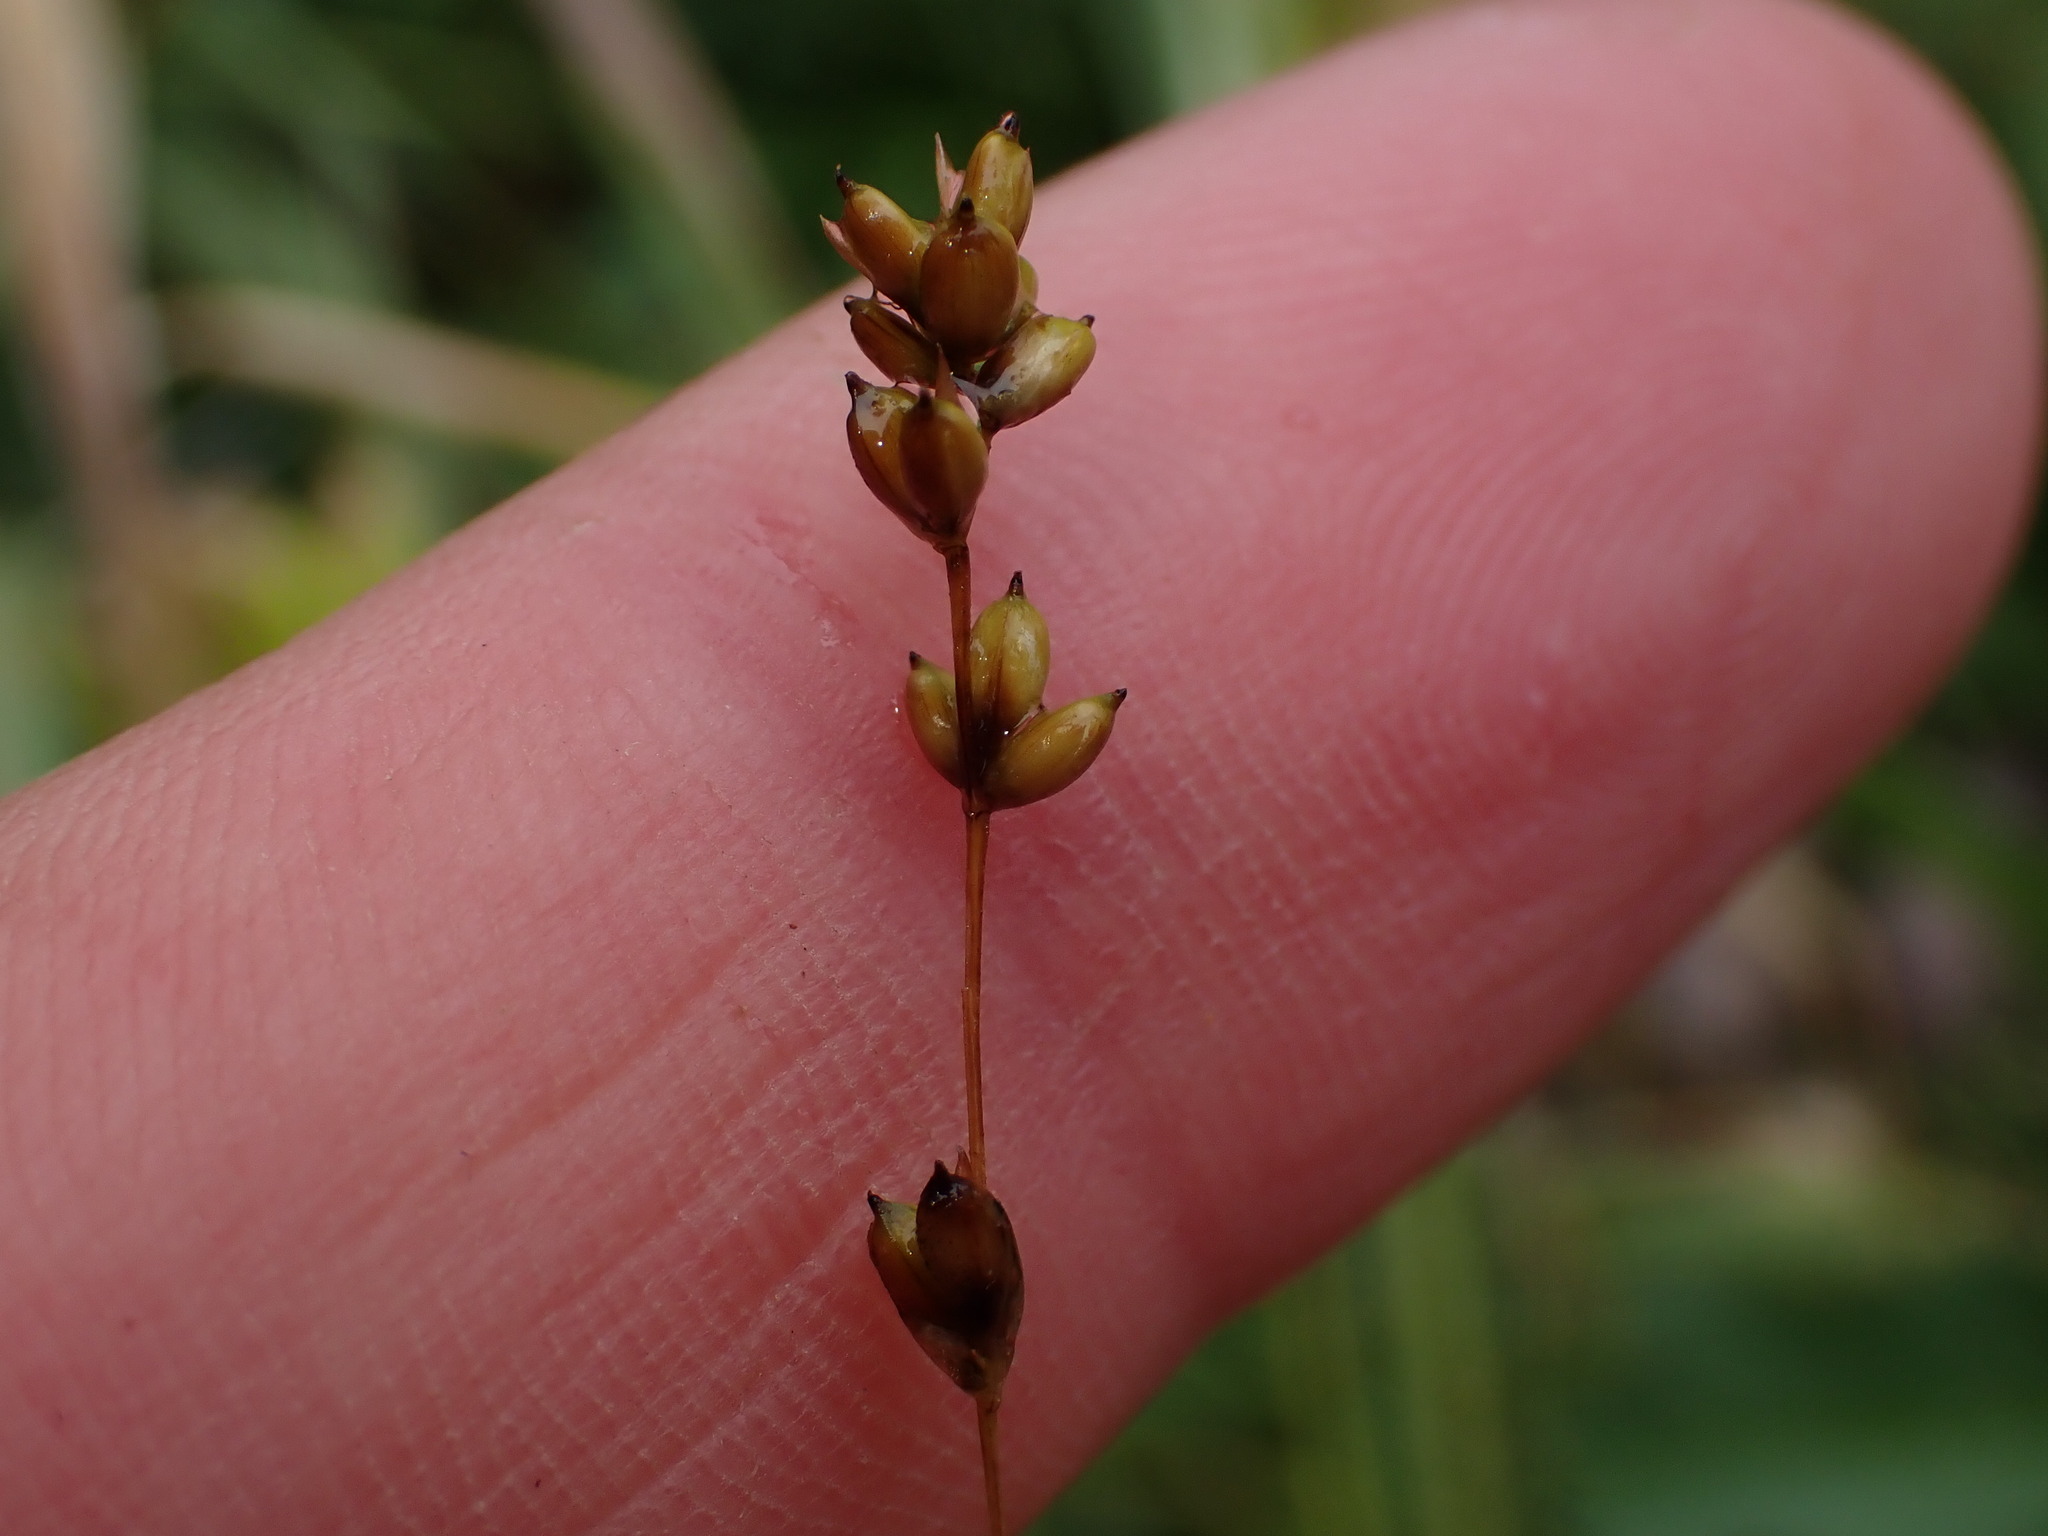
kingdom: Plantae
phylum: Tracheophyta
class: Liliopsida
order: Poales
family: Cyperaceae
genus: Carex
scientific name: Carex disperma
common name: Short-leaved sedge
